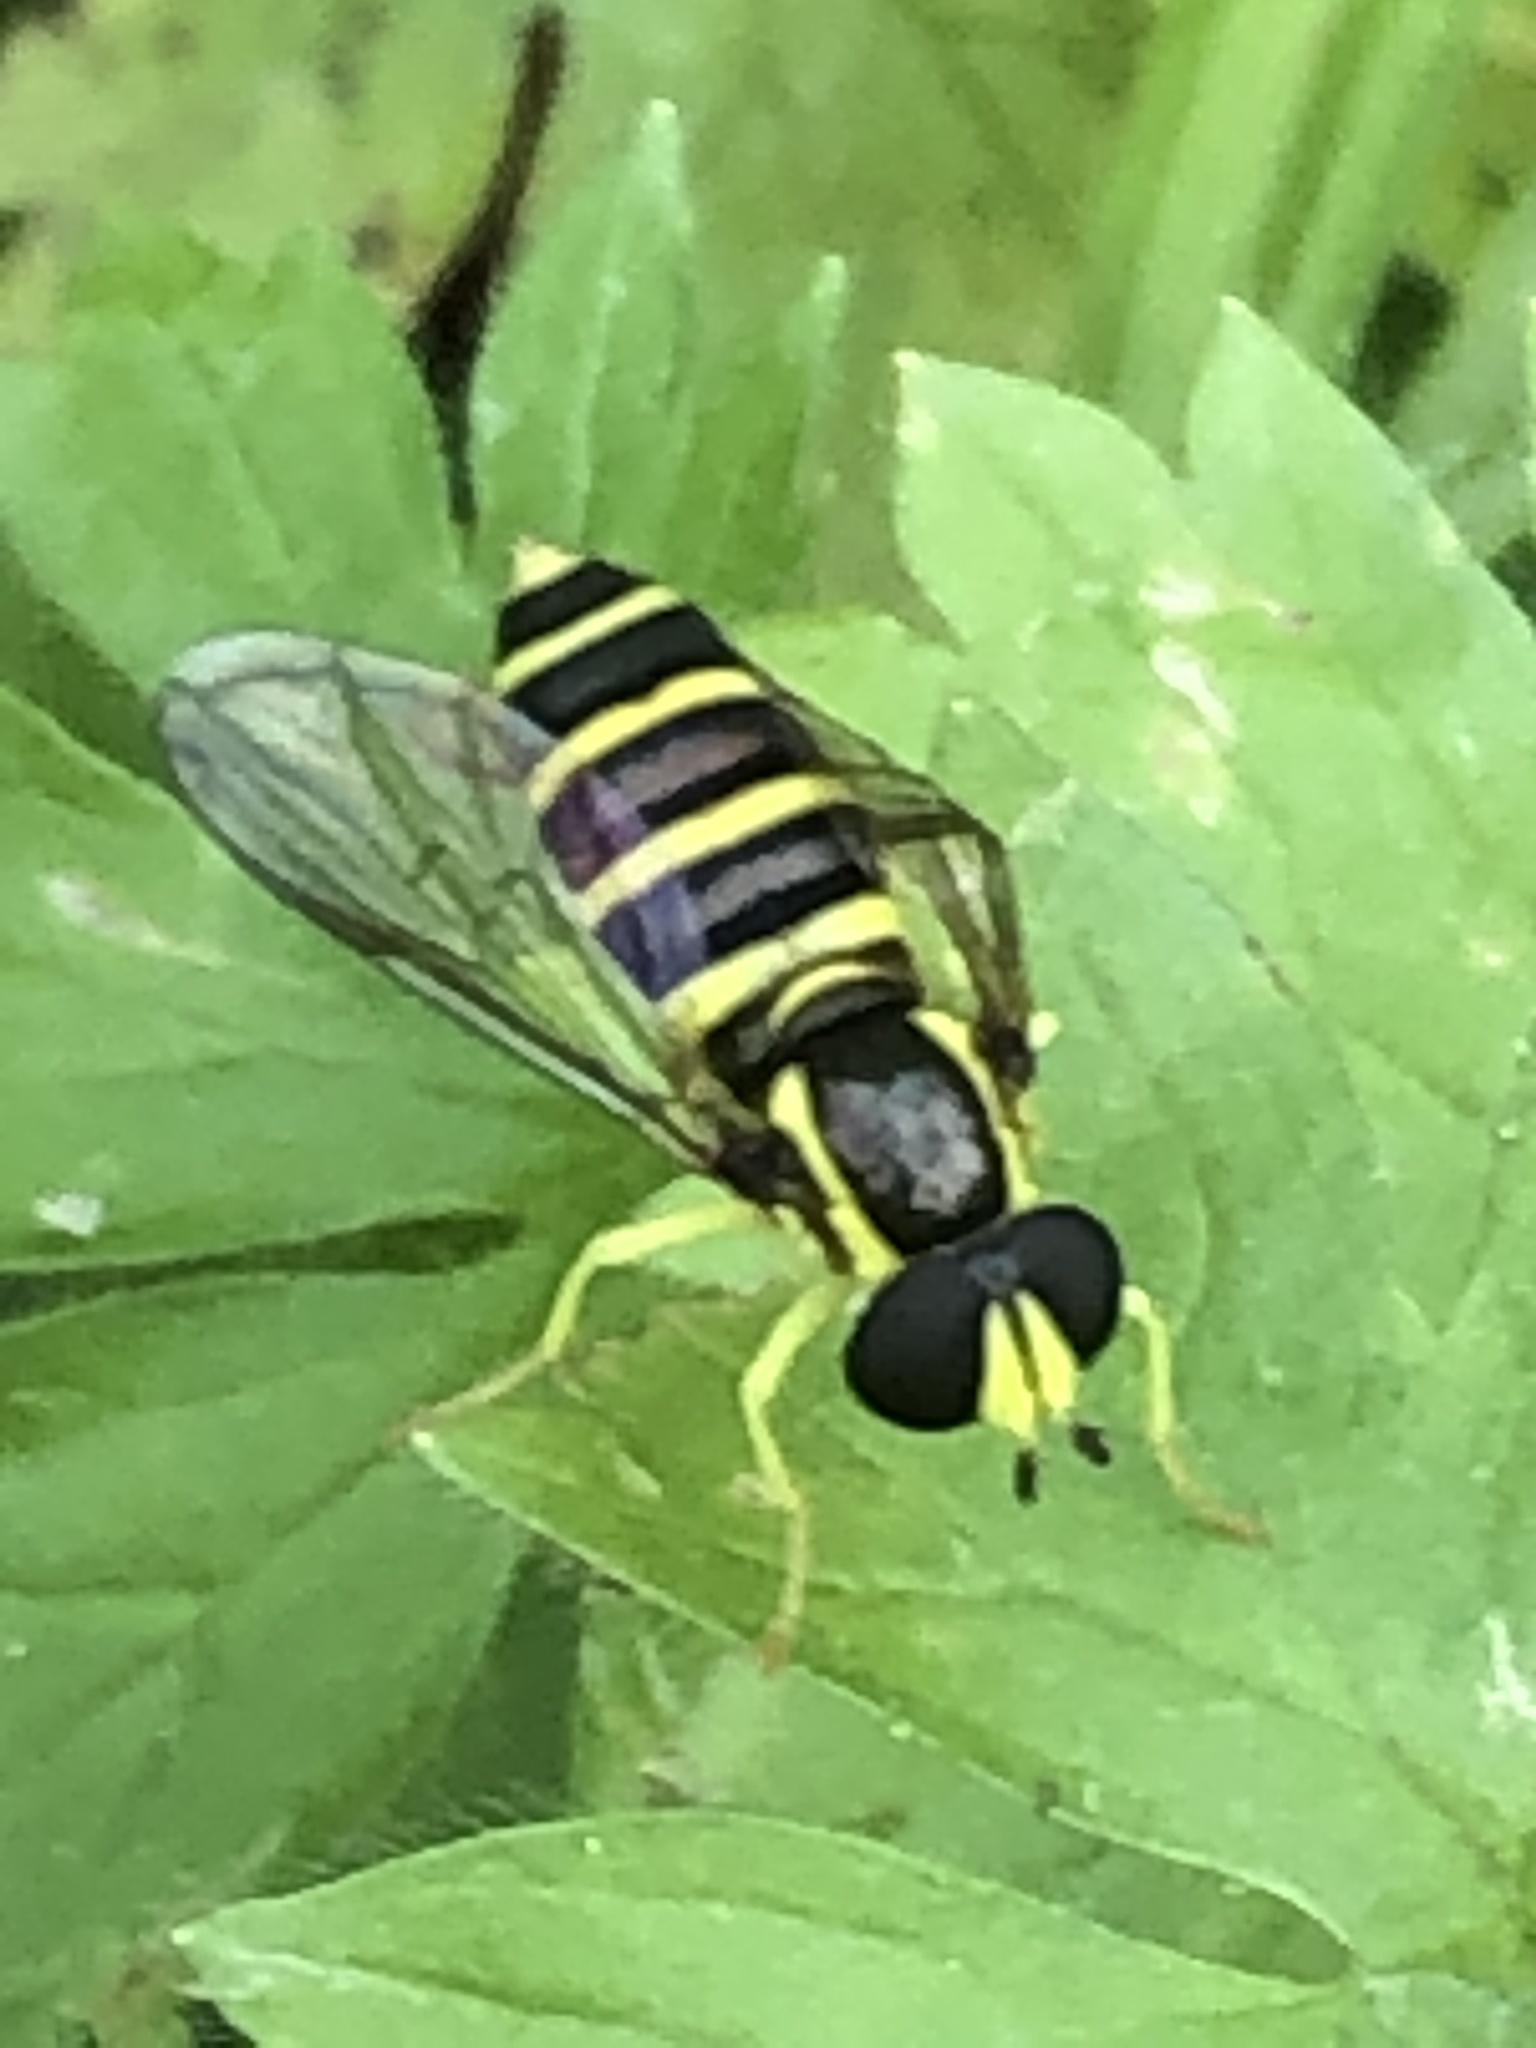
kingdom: Animalia
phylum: Arthropoda
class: Insecta
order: Diptera
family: Syrphidae
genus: Philhelius
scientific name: Philhelius flavipes
